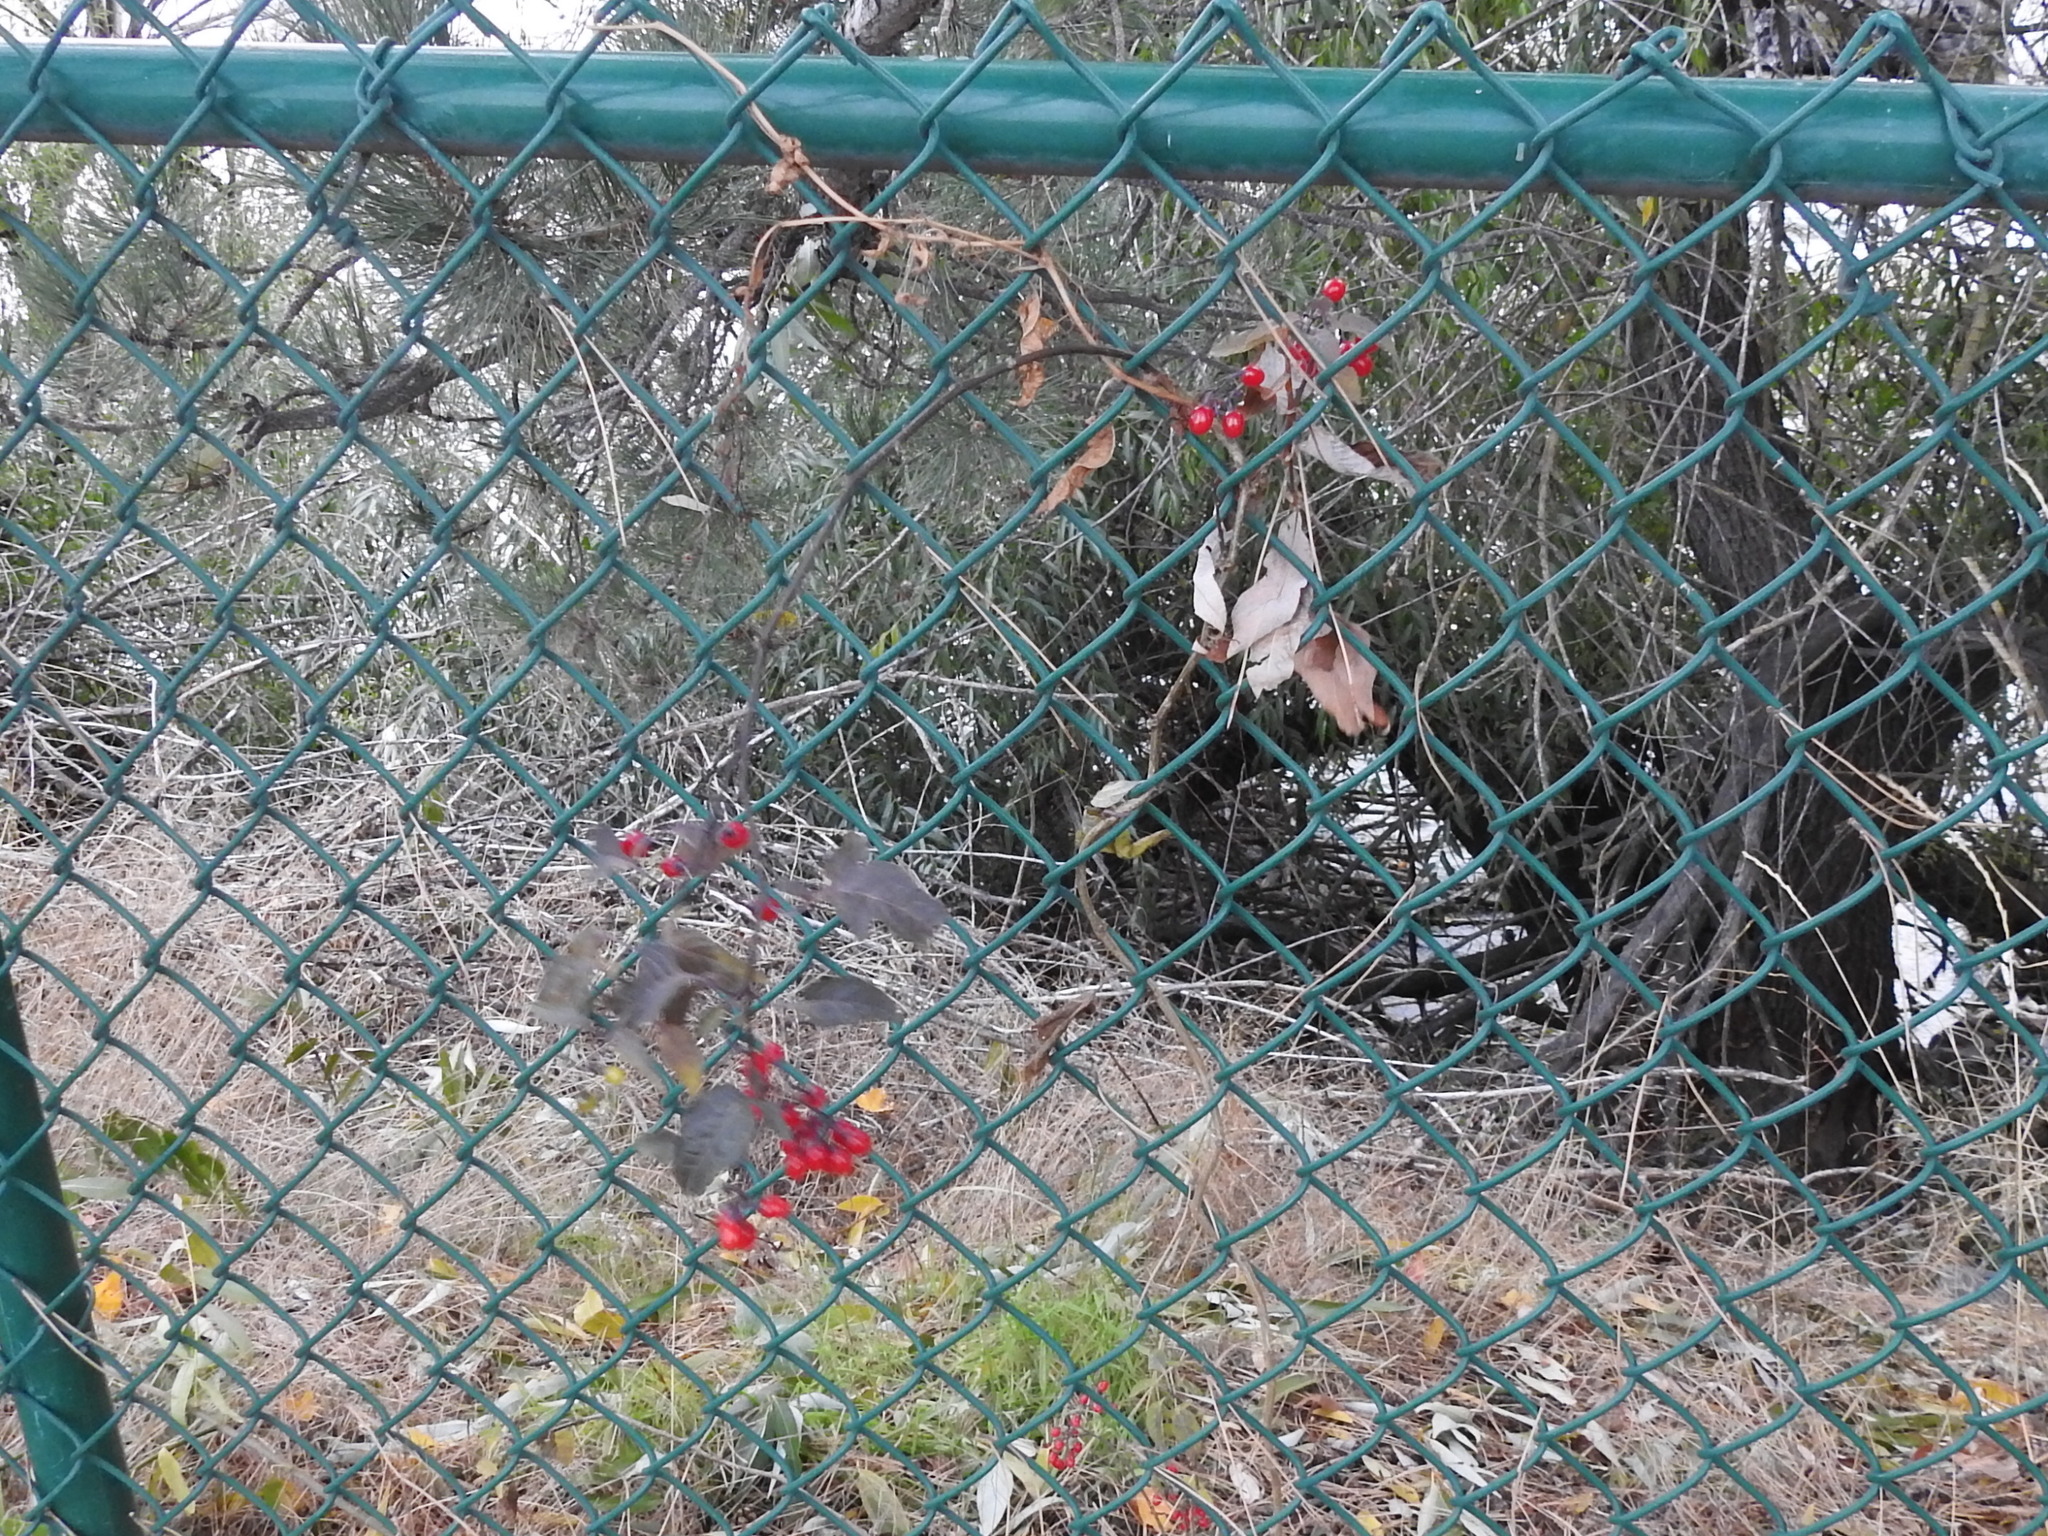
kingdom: Plantae
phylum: Tracheophyta
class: Magnoliopsida
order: Solanales
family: Solanaceae
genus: Solanum
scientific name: Solanum dulcamara
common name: Climbing nightshade
